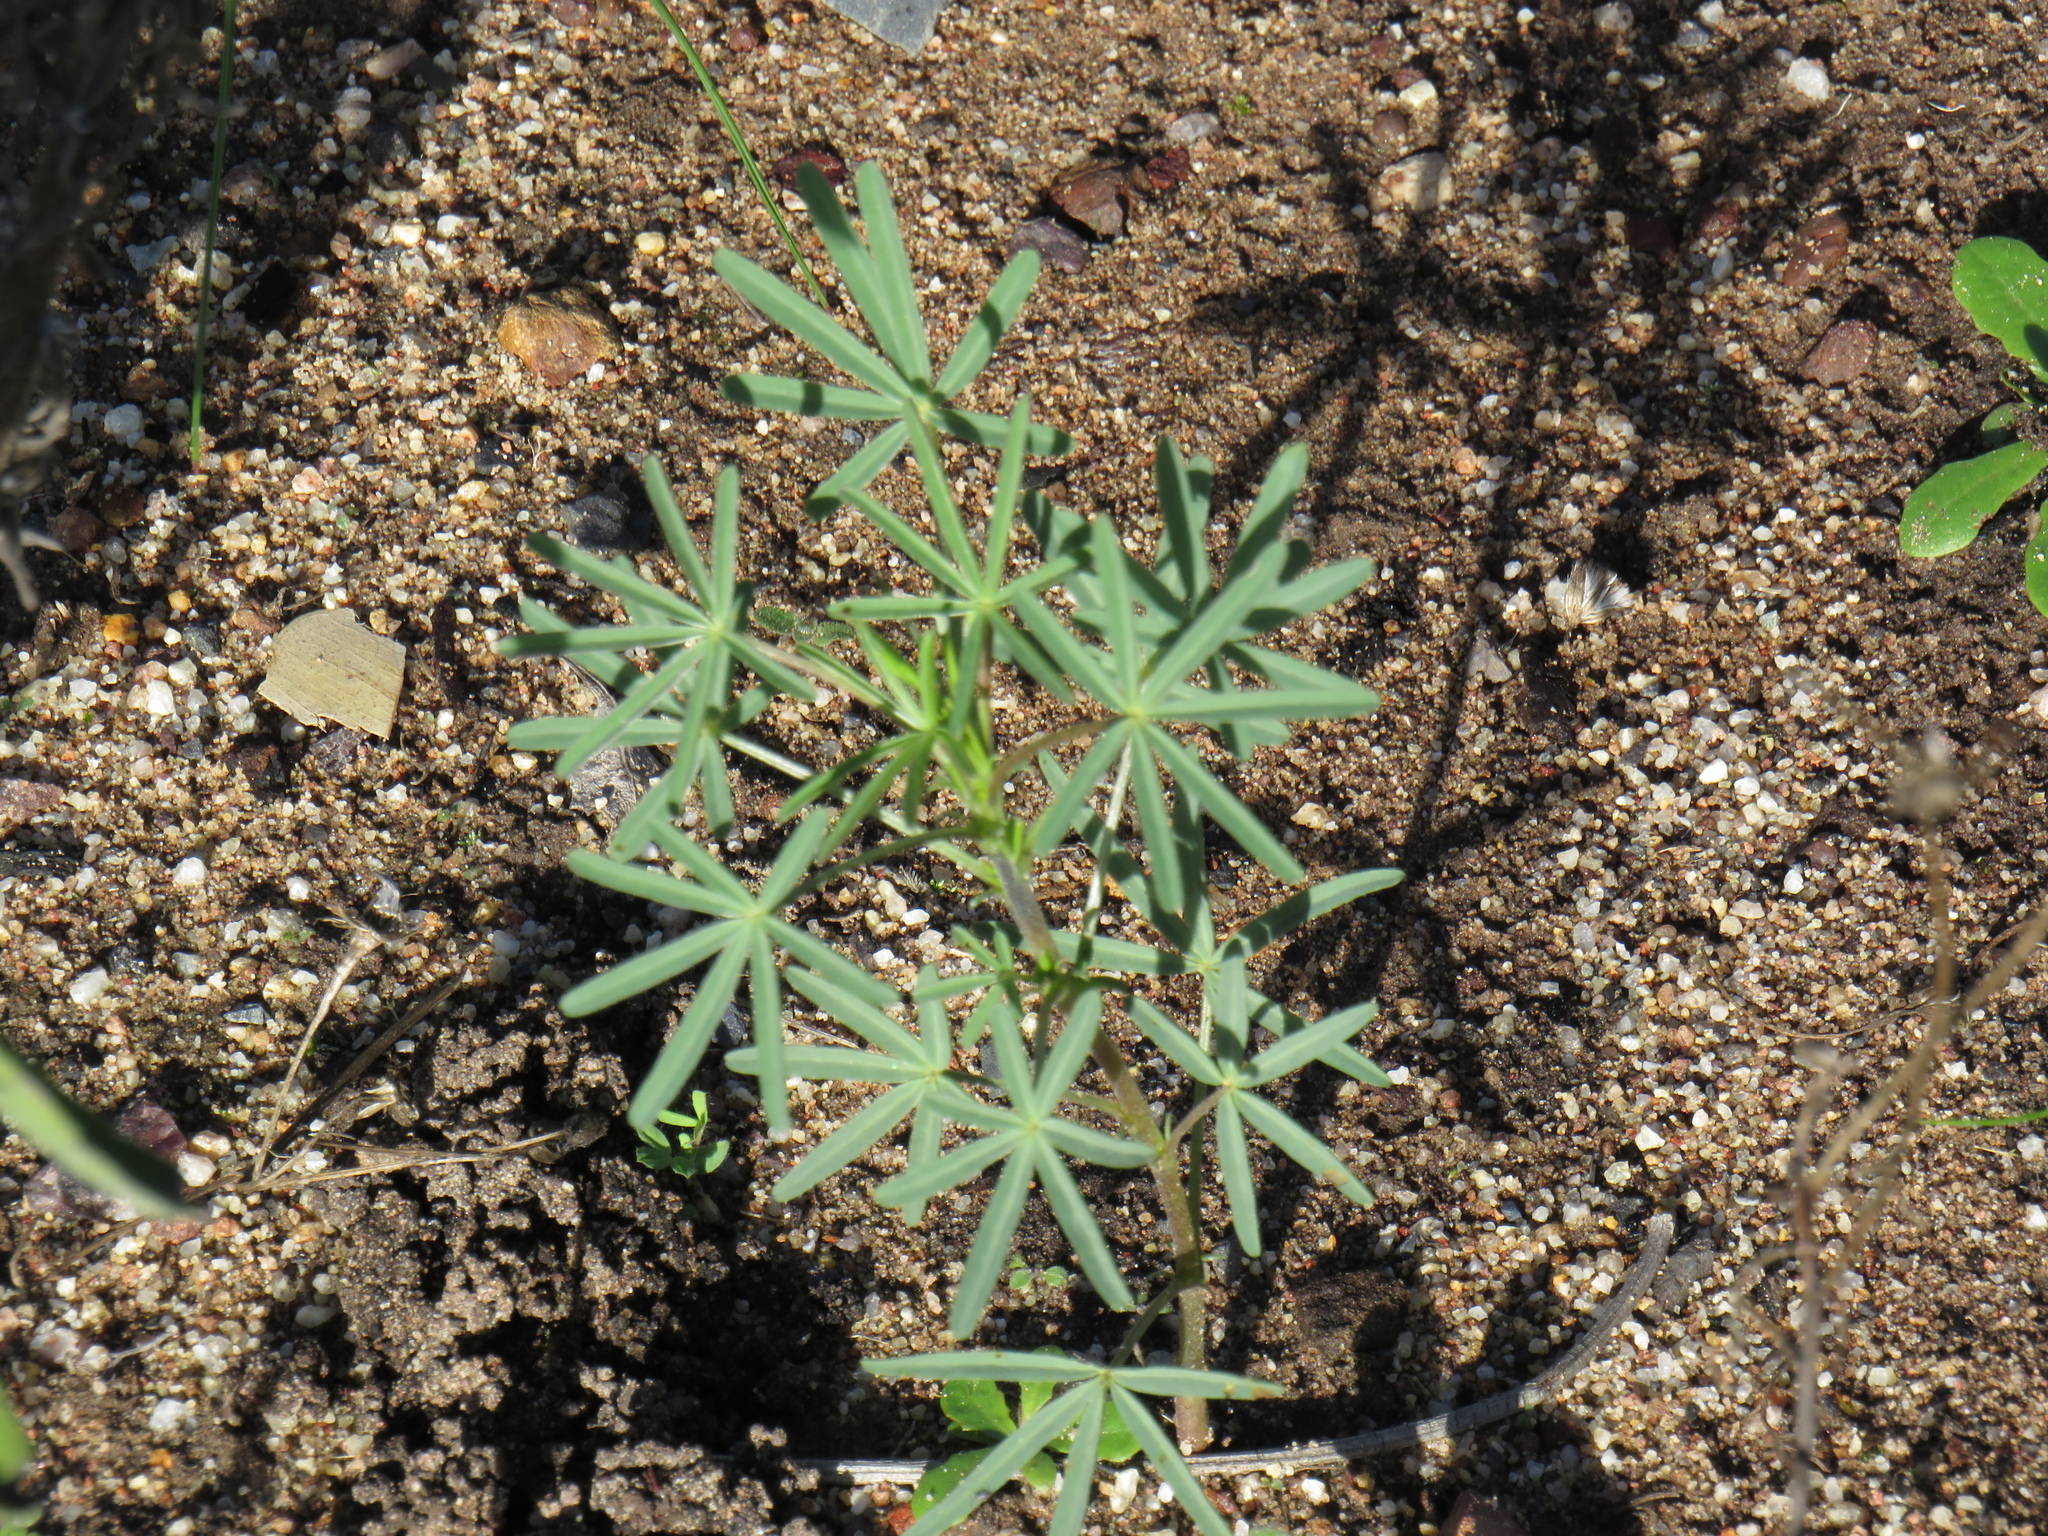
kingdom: Plantae
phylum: Tracheophyta
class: Magnoliopsida
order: Fabales
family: Fabaceae
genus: Lupinus
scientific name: Lupinus angustifolius
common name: Narrow-leaved lupin
